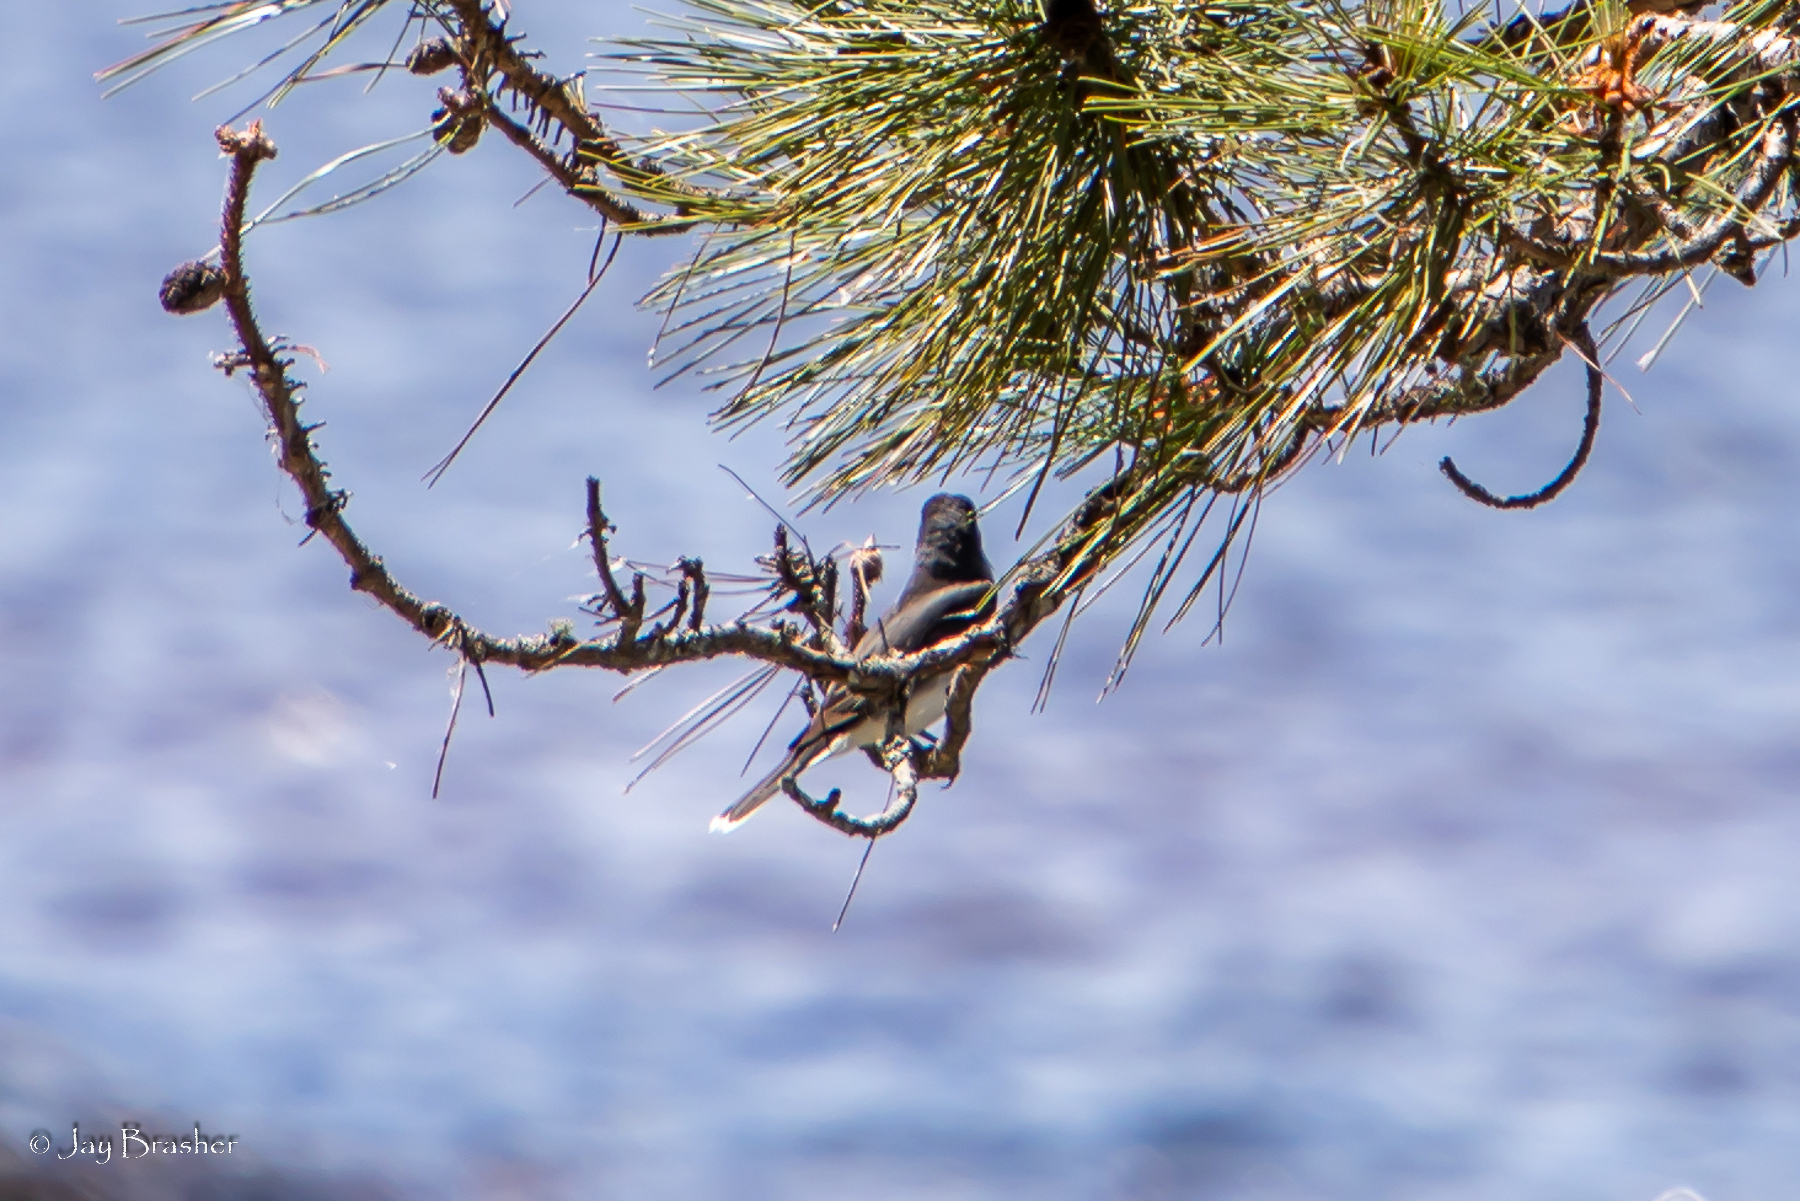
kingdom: Animalia
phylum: Chordata
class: Aves
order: Passeriformes
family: Tyrannidae
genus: Tyrannus
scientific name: Tyrannus tyrannus
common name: Eastern kingbird
